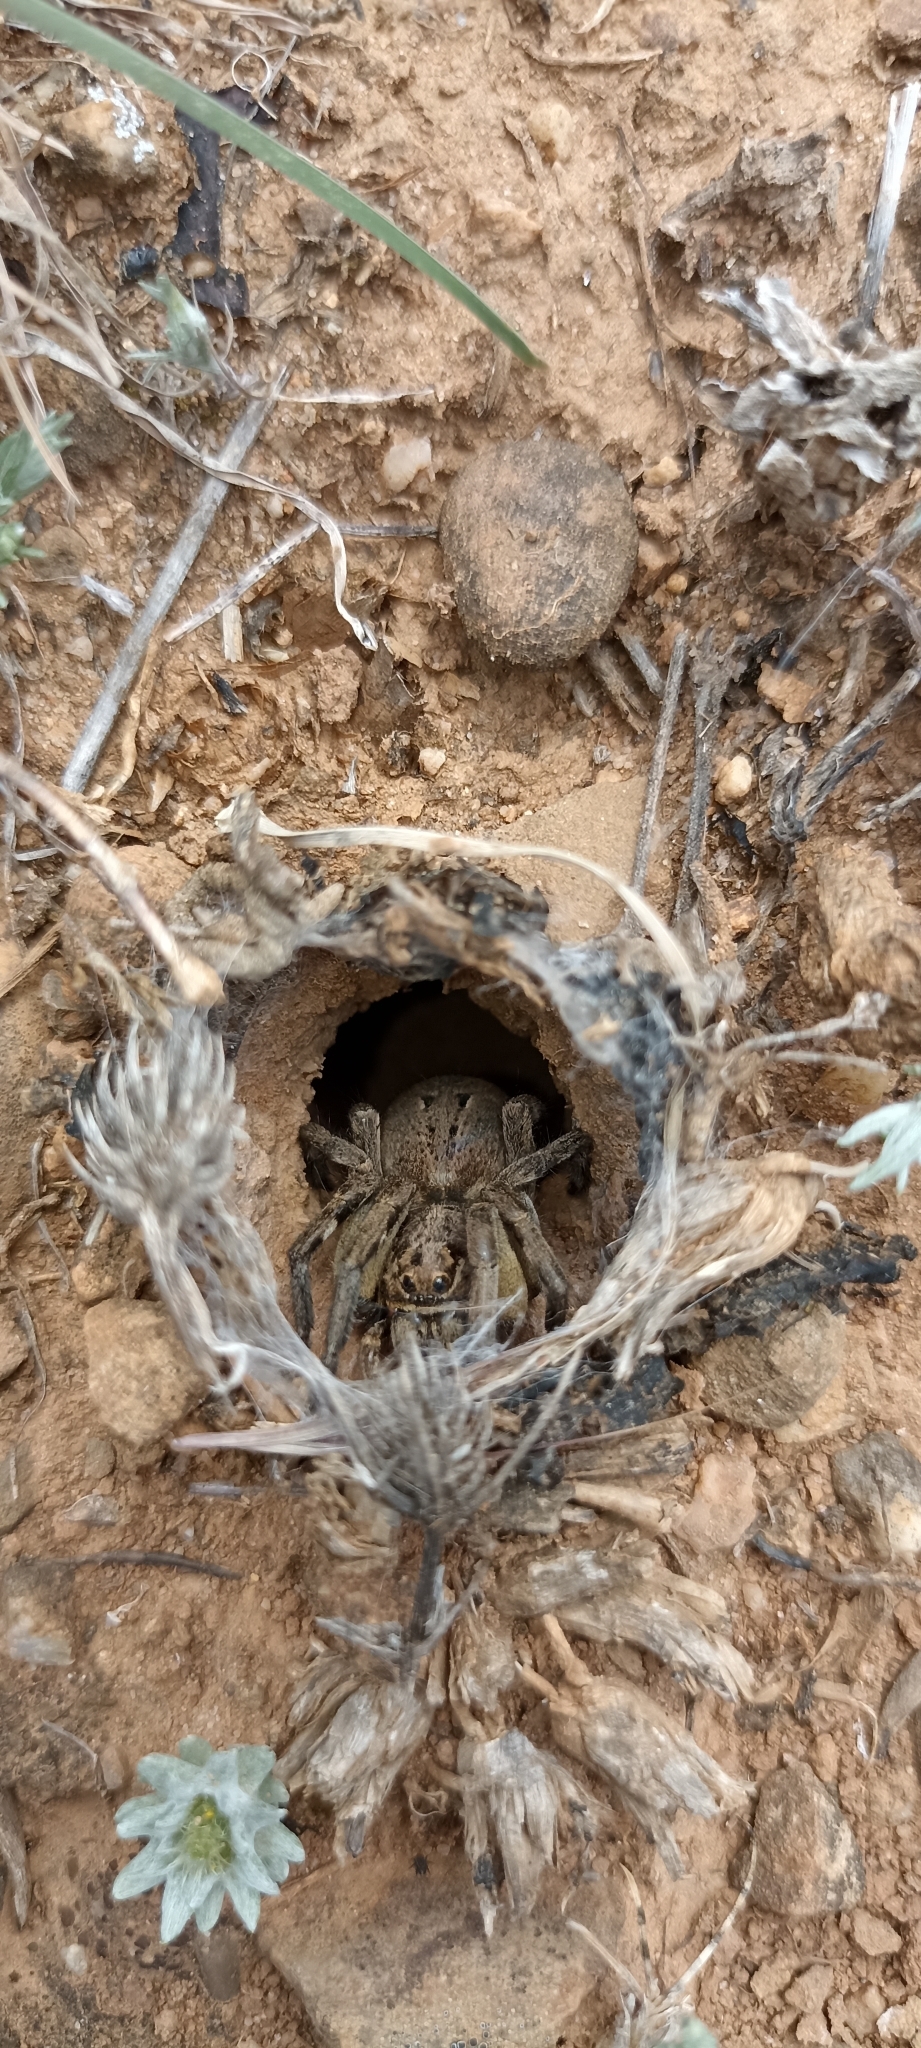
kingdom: Animalia
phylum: Arthropoda
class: Arachnida
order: Araneae
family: Lycosidae
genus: Lycosa
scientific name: Lycosa tarantula
